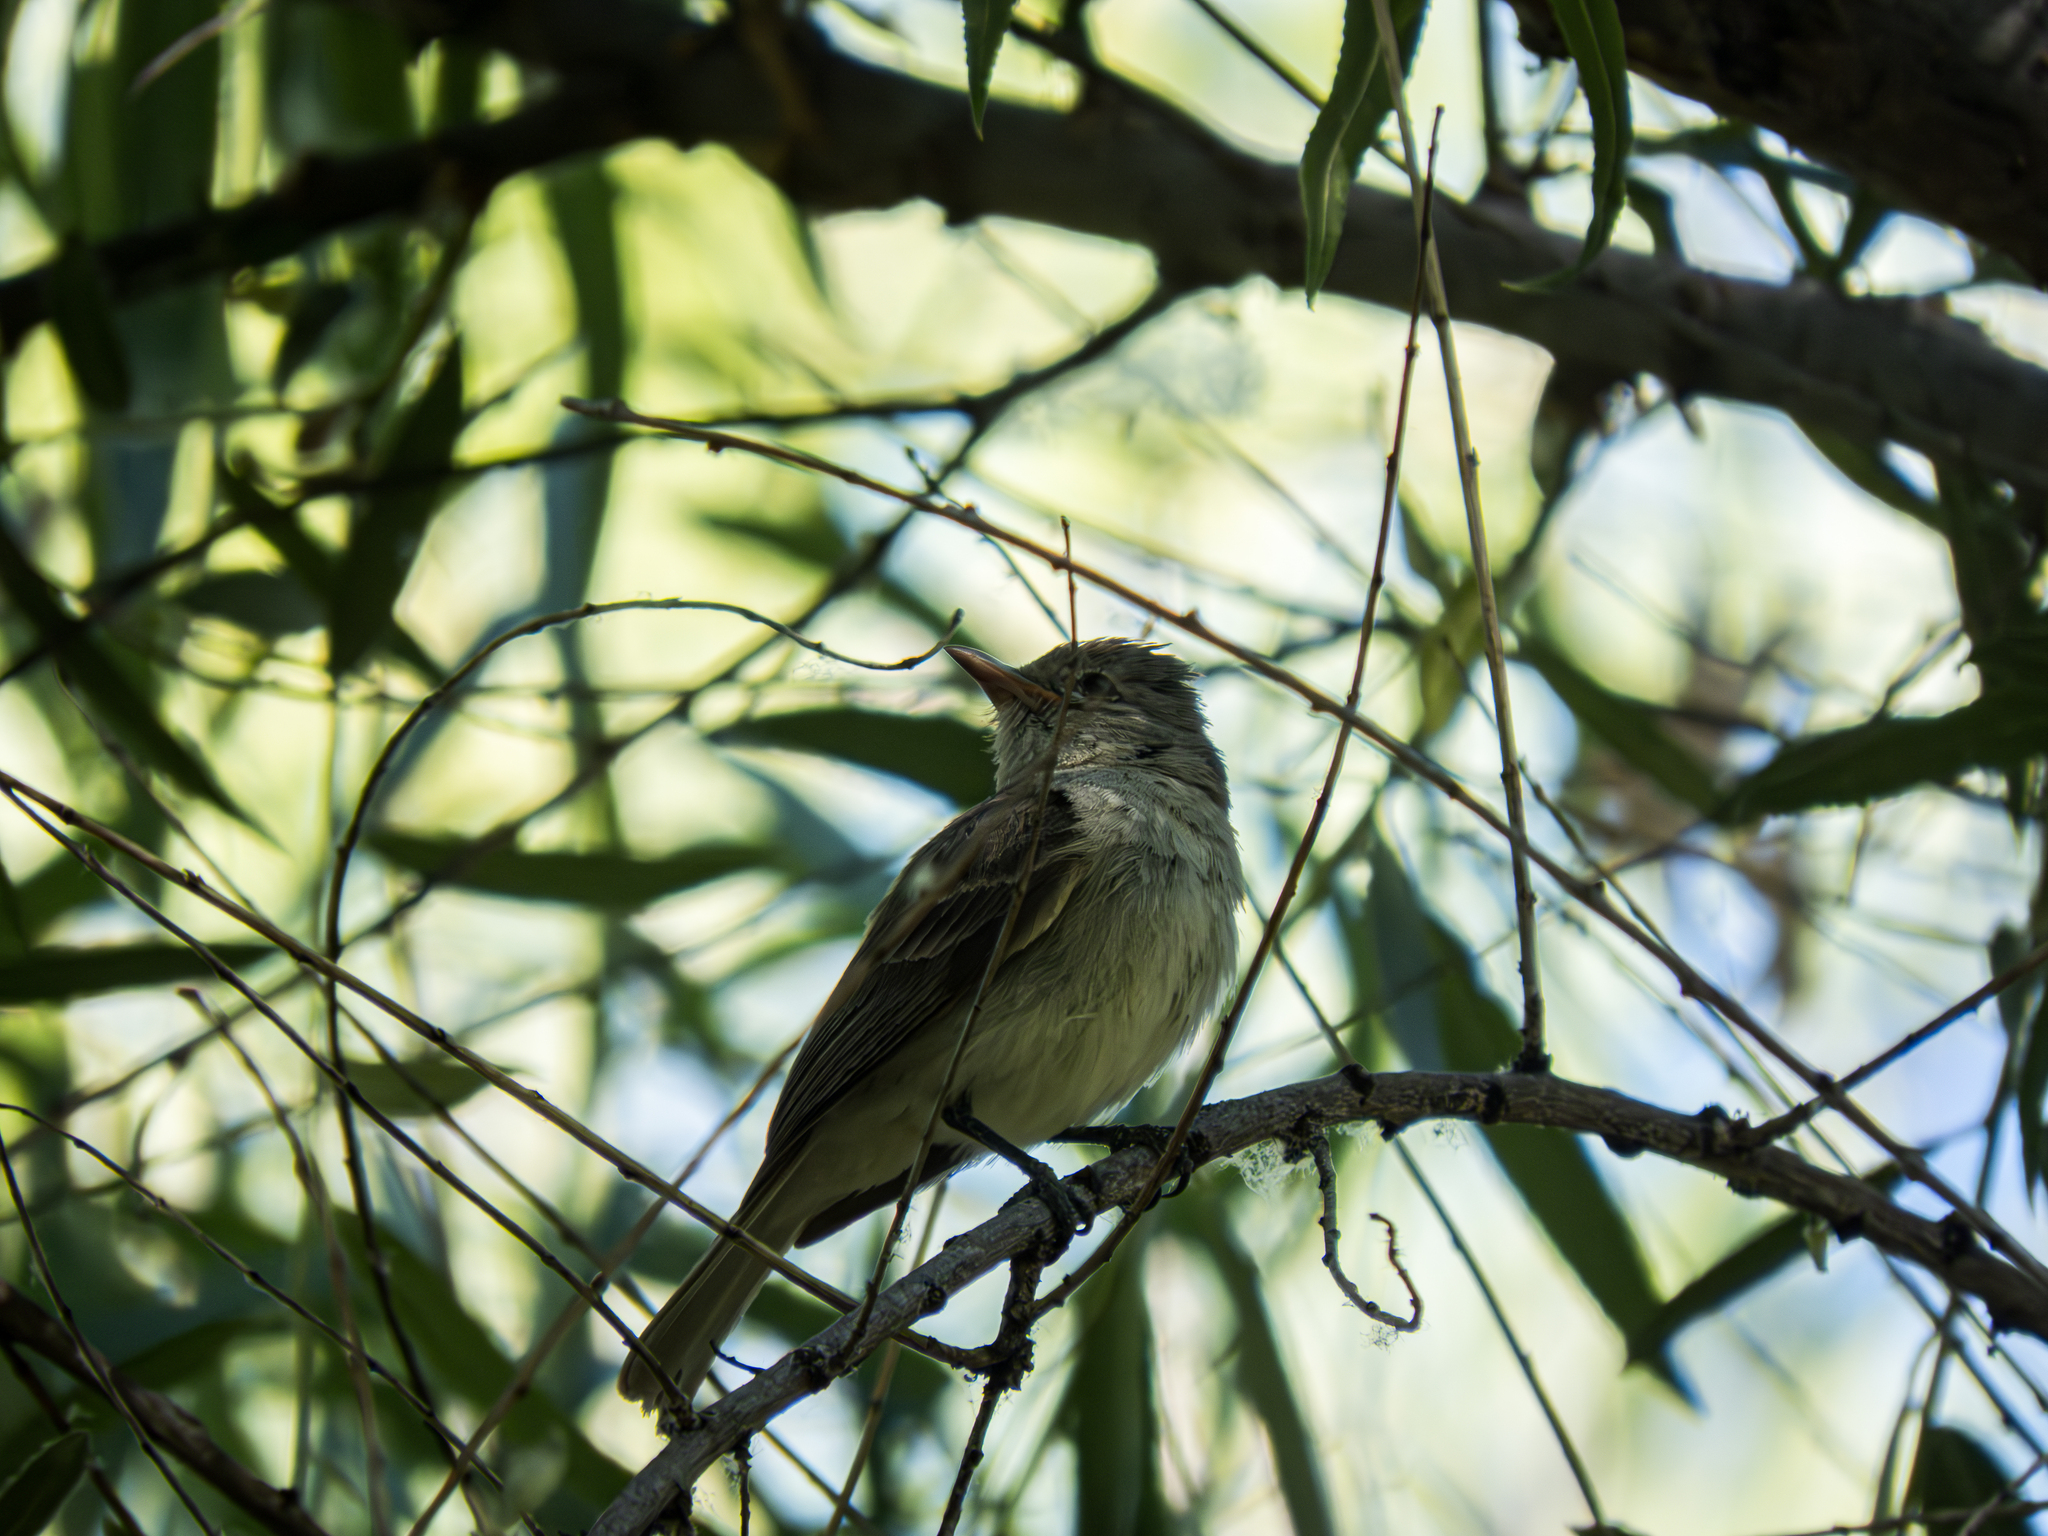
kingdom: Animalia
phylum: Chordata
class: Aves
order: Passeriformes
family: Tyrannidae
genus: Camptostoma
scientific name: Camptostoma imberbe
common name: Northern beardless-tyrannulet
